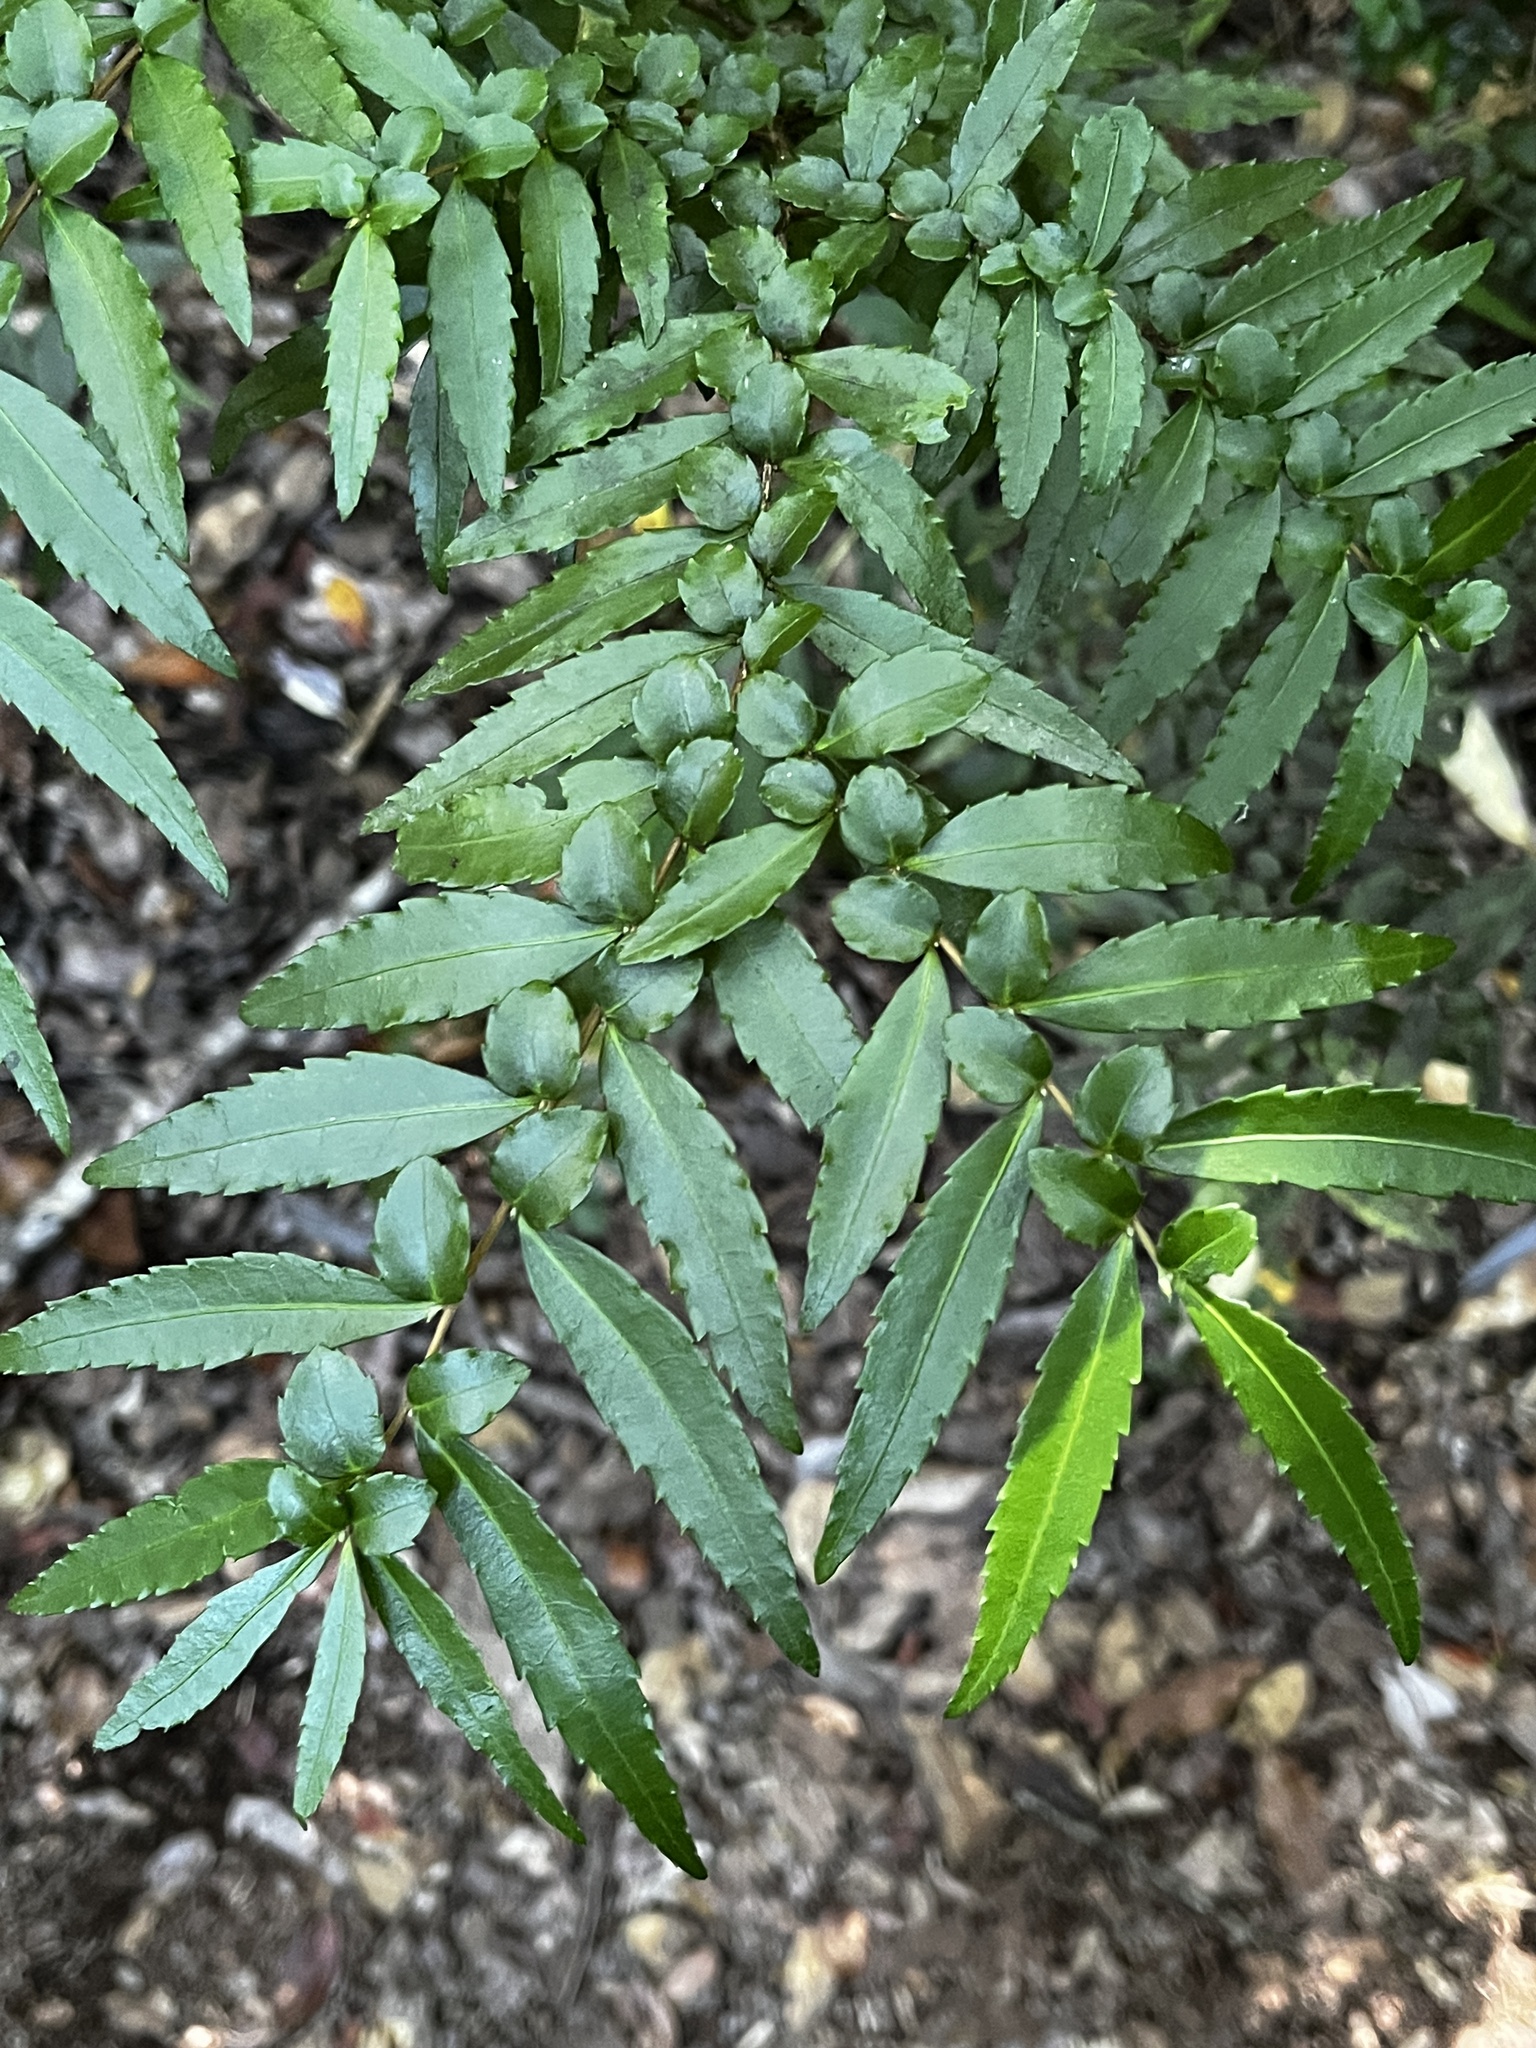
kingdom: Plantae
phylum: Tracheophyta
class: Magnoliopsida
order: Malpighiales
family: Salicaceae
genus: Azara
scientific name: Azara lanceolata
